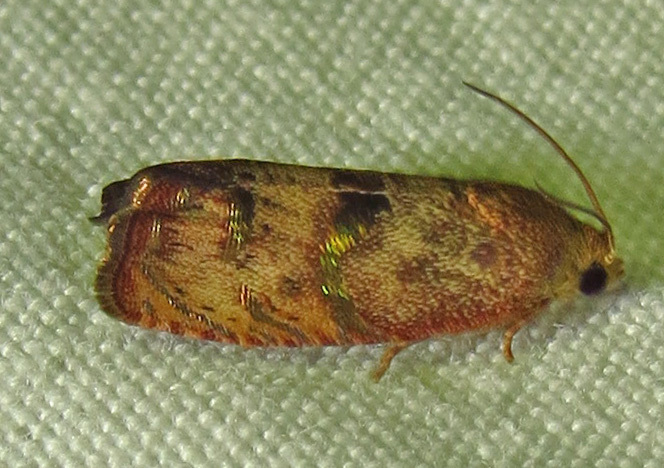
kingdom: Animalia
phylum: Arthropoda
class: Insecta
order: Lepidoptera
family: Tortricidae
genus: Cydia
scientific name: Cydia latiferreana
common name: Filbertworm moth
